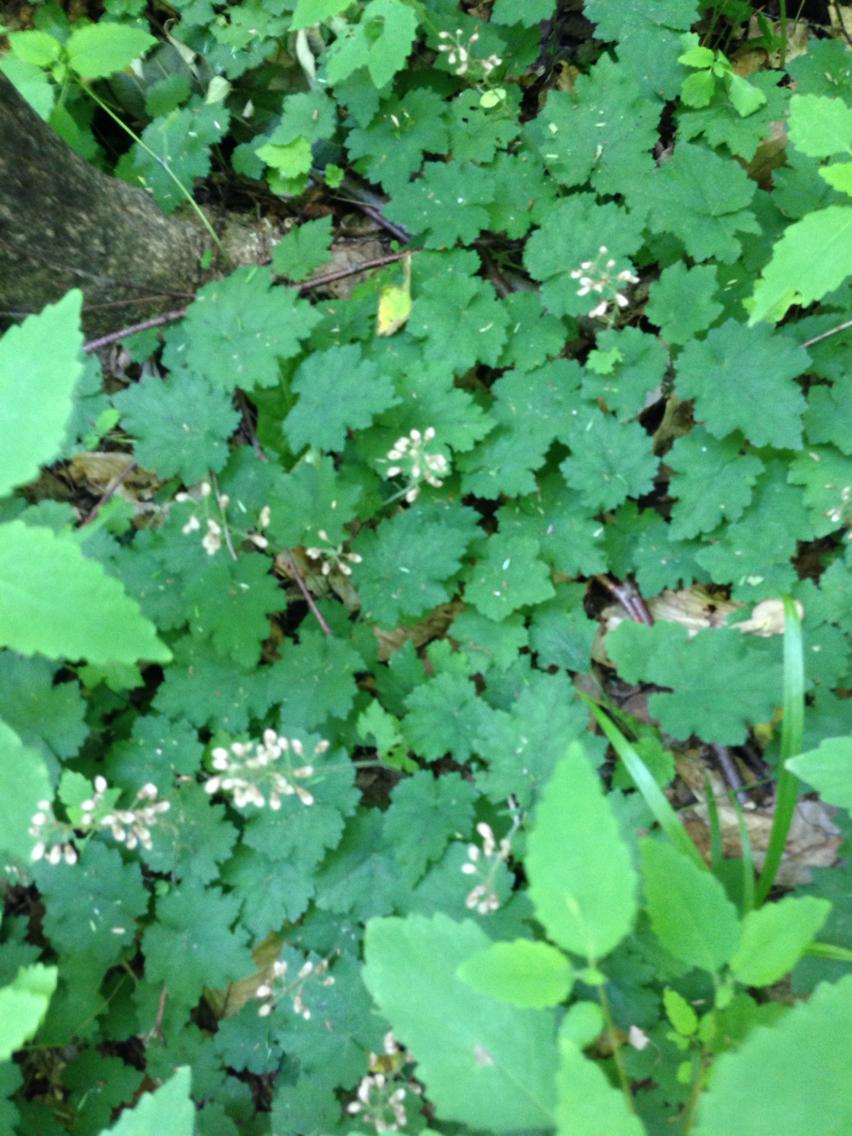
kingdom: Plantae
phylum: Tracheophyta
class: Magnoliopsida
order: Saxifragales
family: Saxifragaceae
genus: Tiarella
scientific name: Tiarella stolonifera
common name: Stoloniferous foamflower
